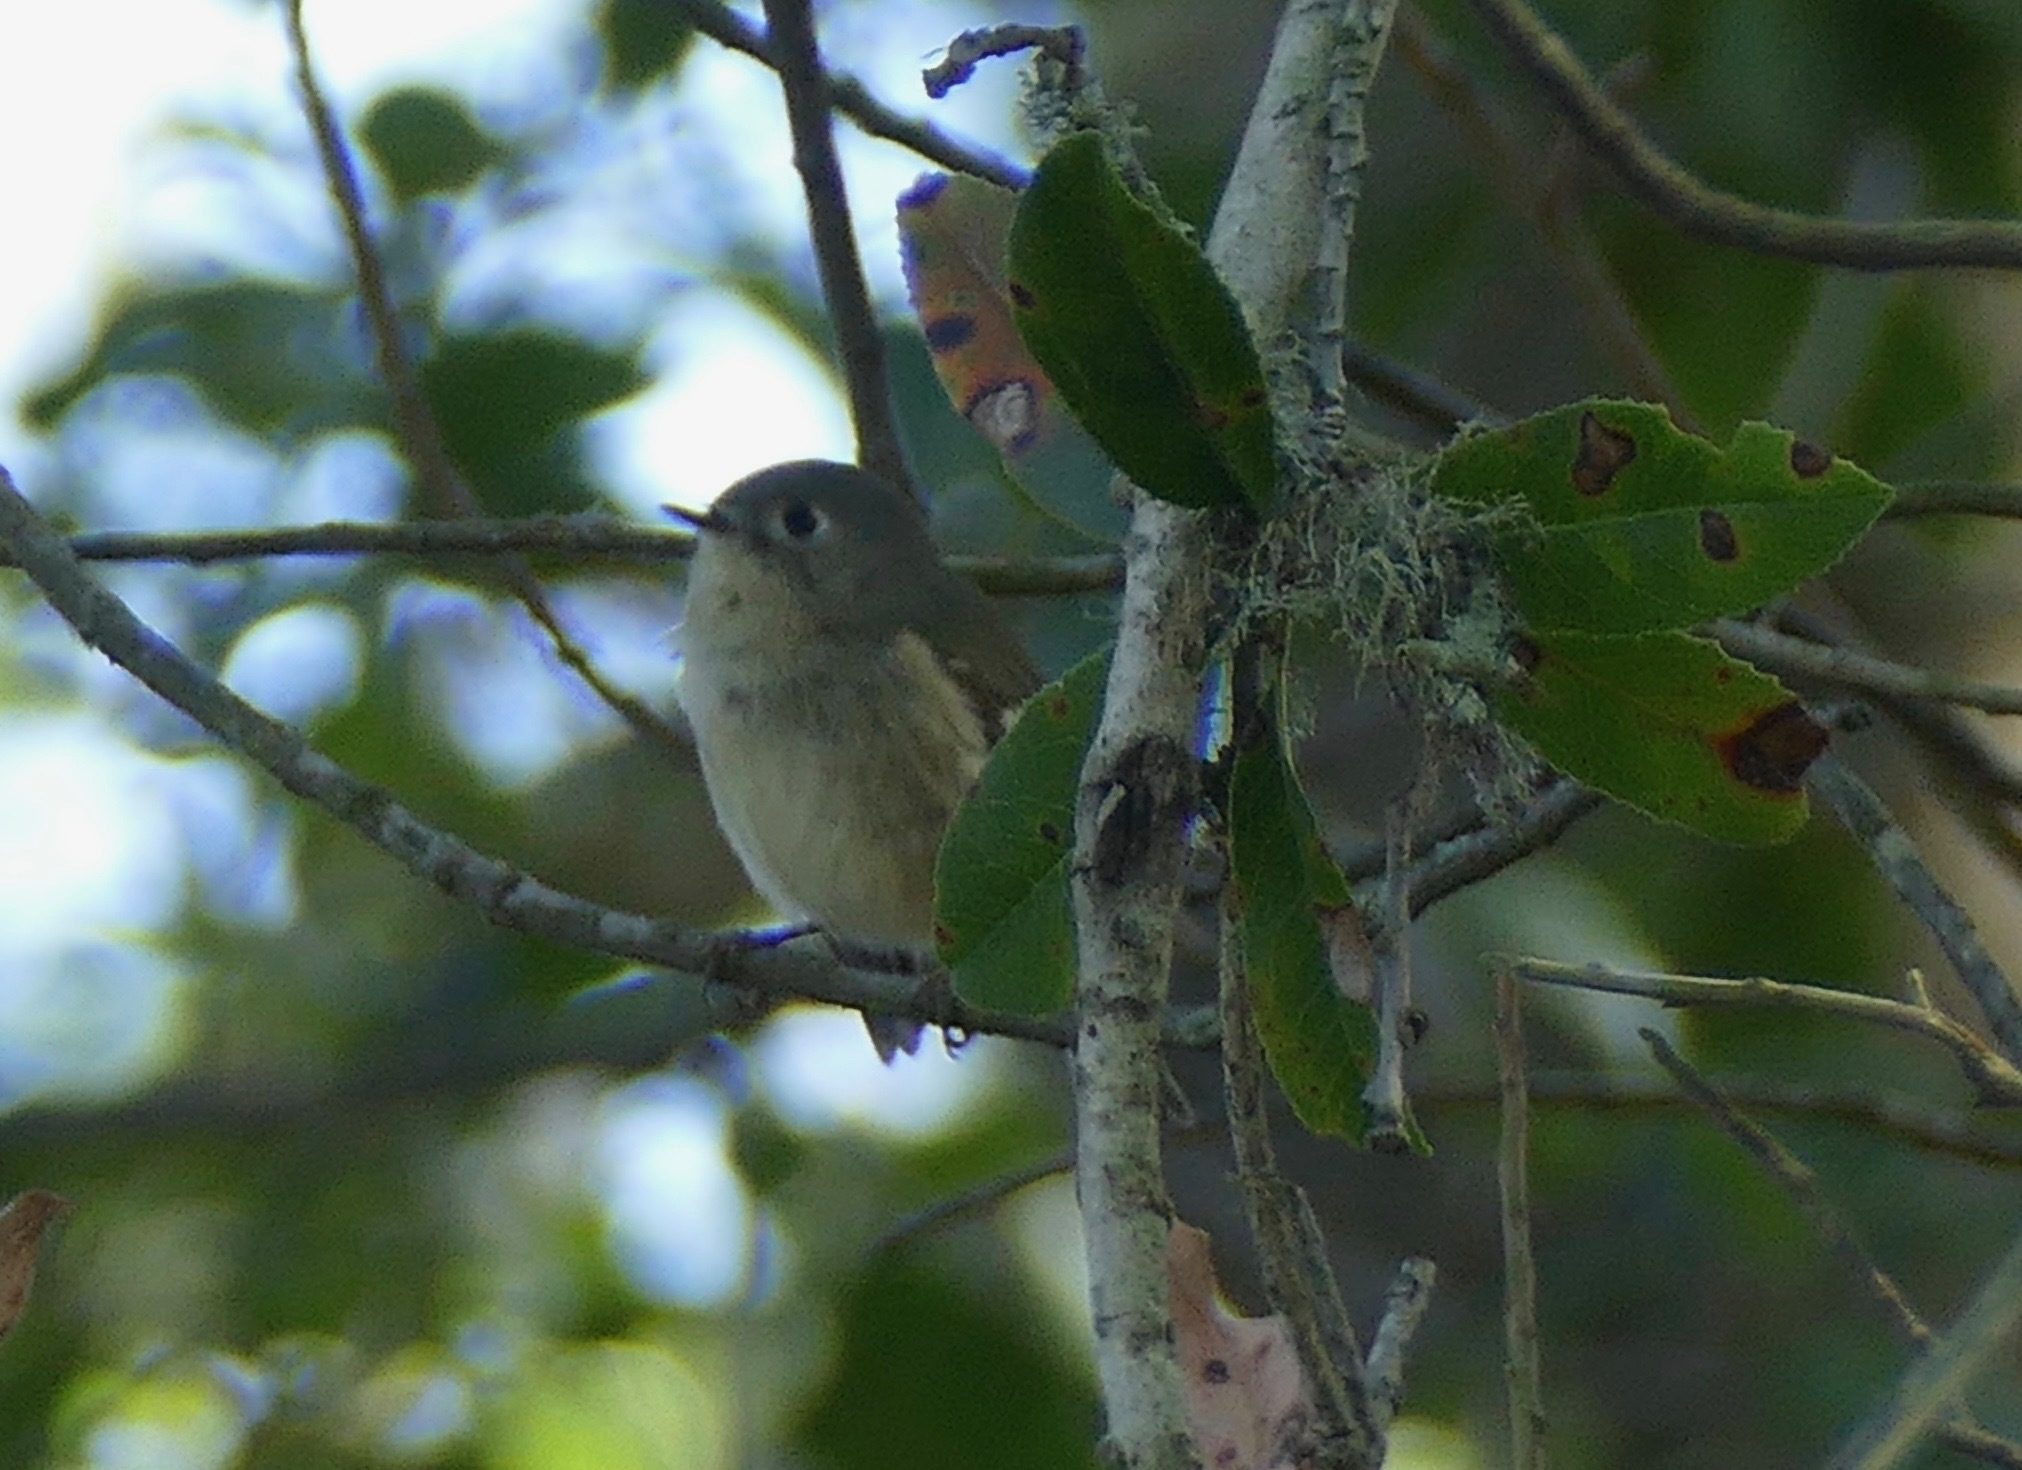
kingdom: Animalia
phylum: Chordata
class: Aves
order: Passeriformes
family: Regulidae
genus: Regulus
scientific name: Regulus calendula
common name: Ruby-crowned kinglet
